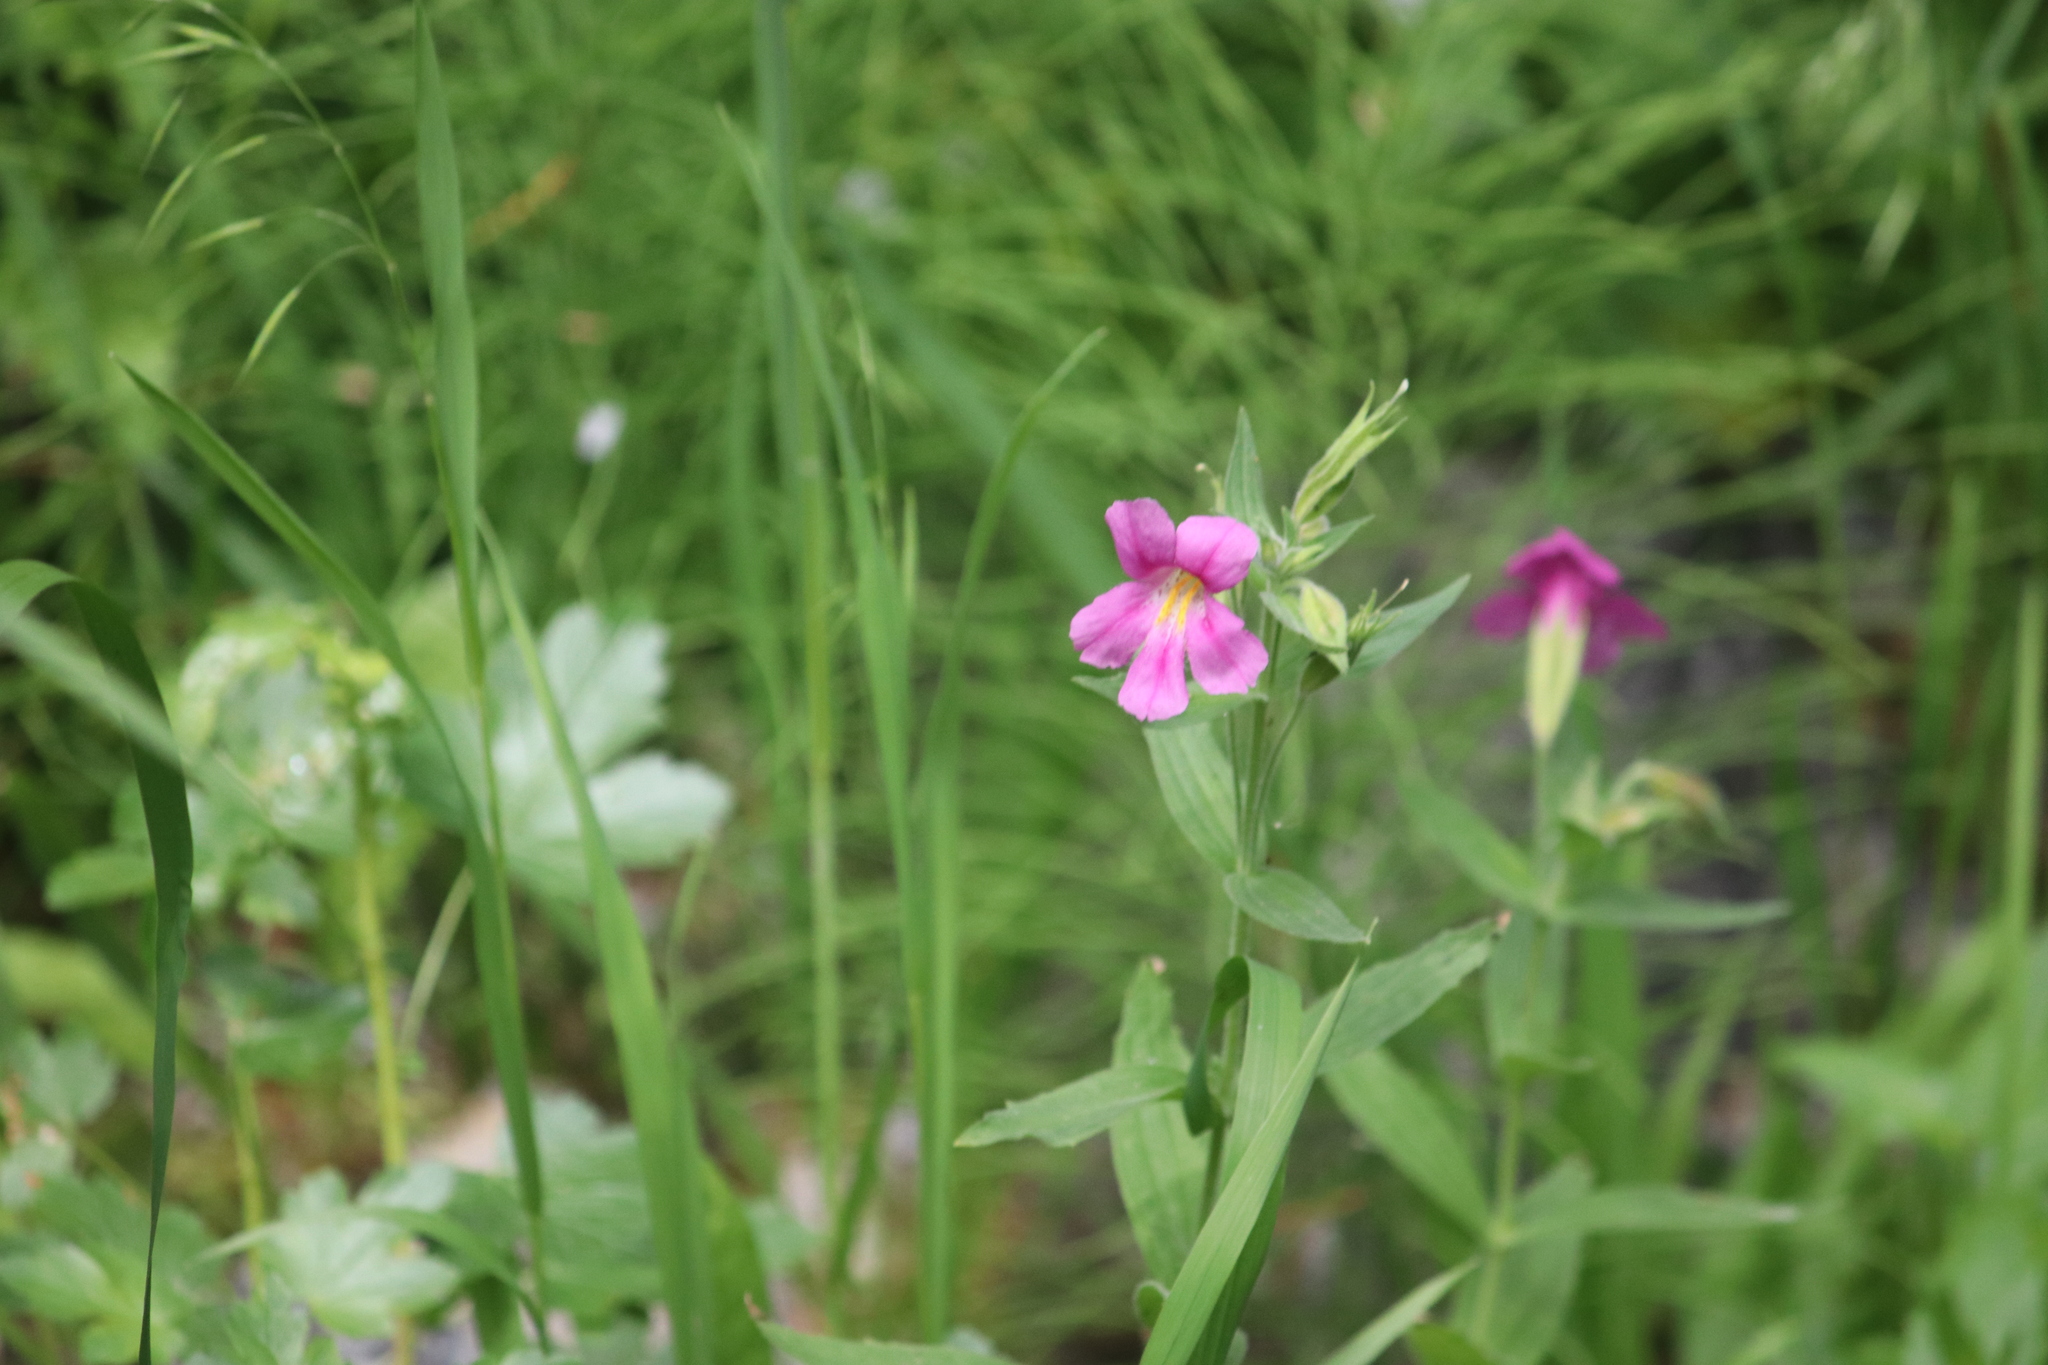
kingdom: Plantae
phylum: Tracheophyta
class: Magnoliopsida
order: Lamiales
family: Phrymaceae
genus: Erythranthe
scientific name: Erythranthe lewisii
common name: Lewis's monkey-flower
